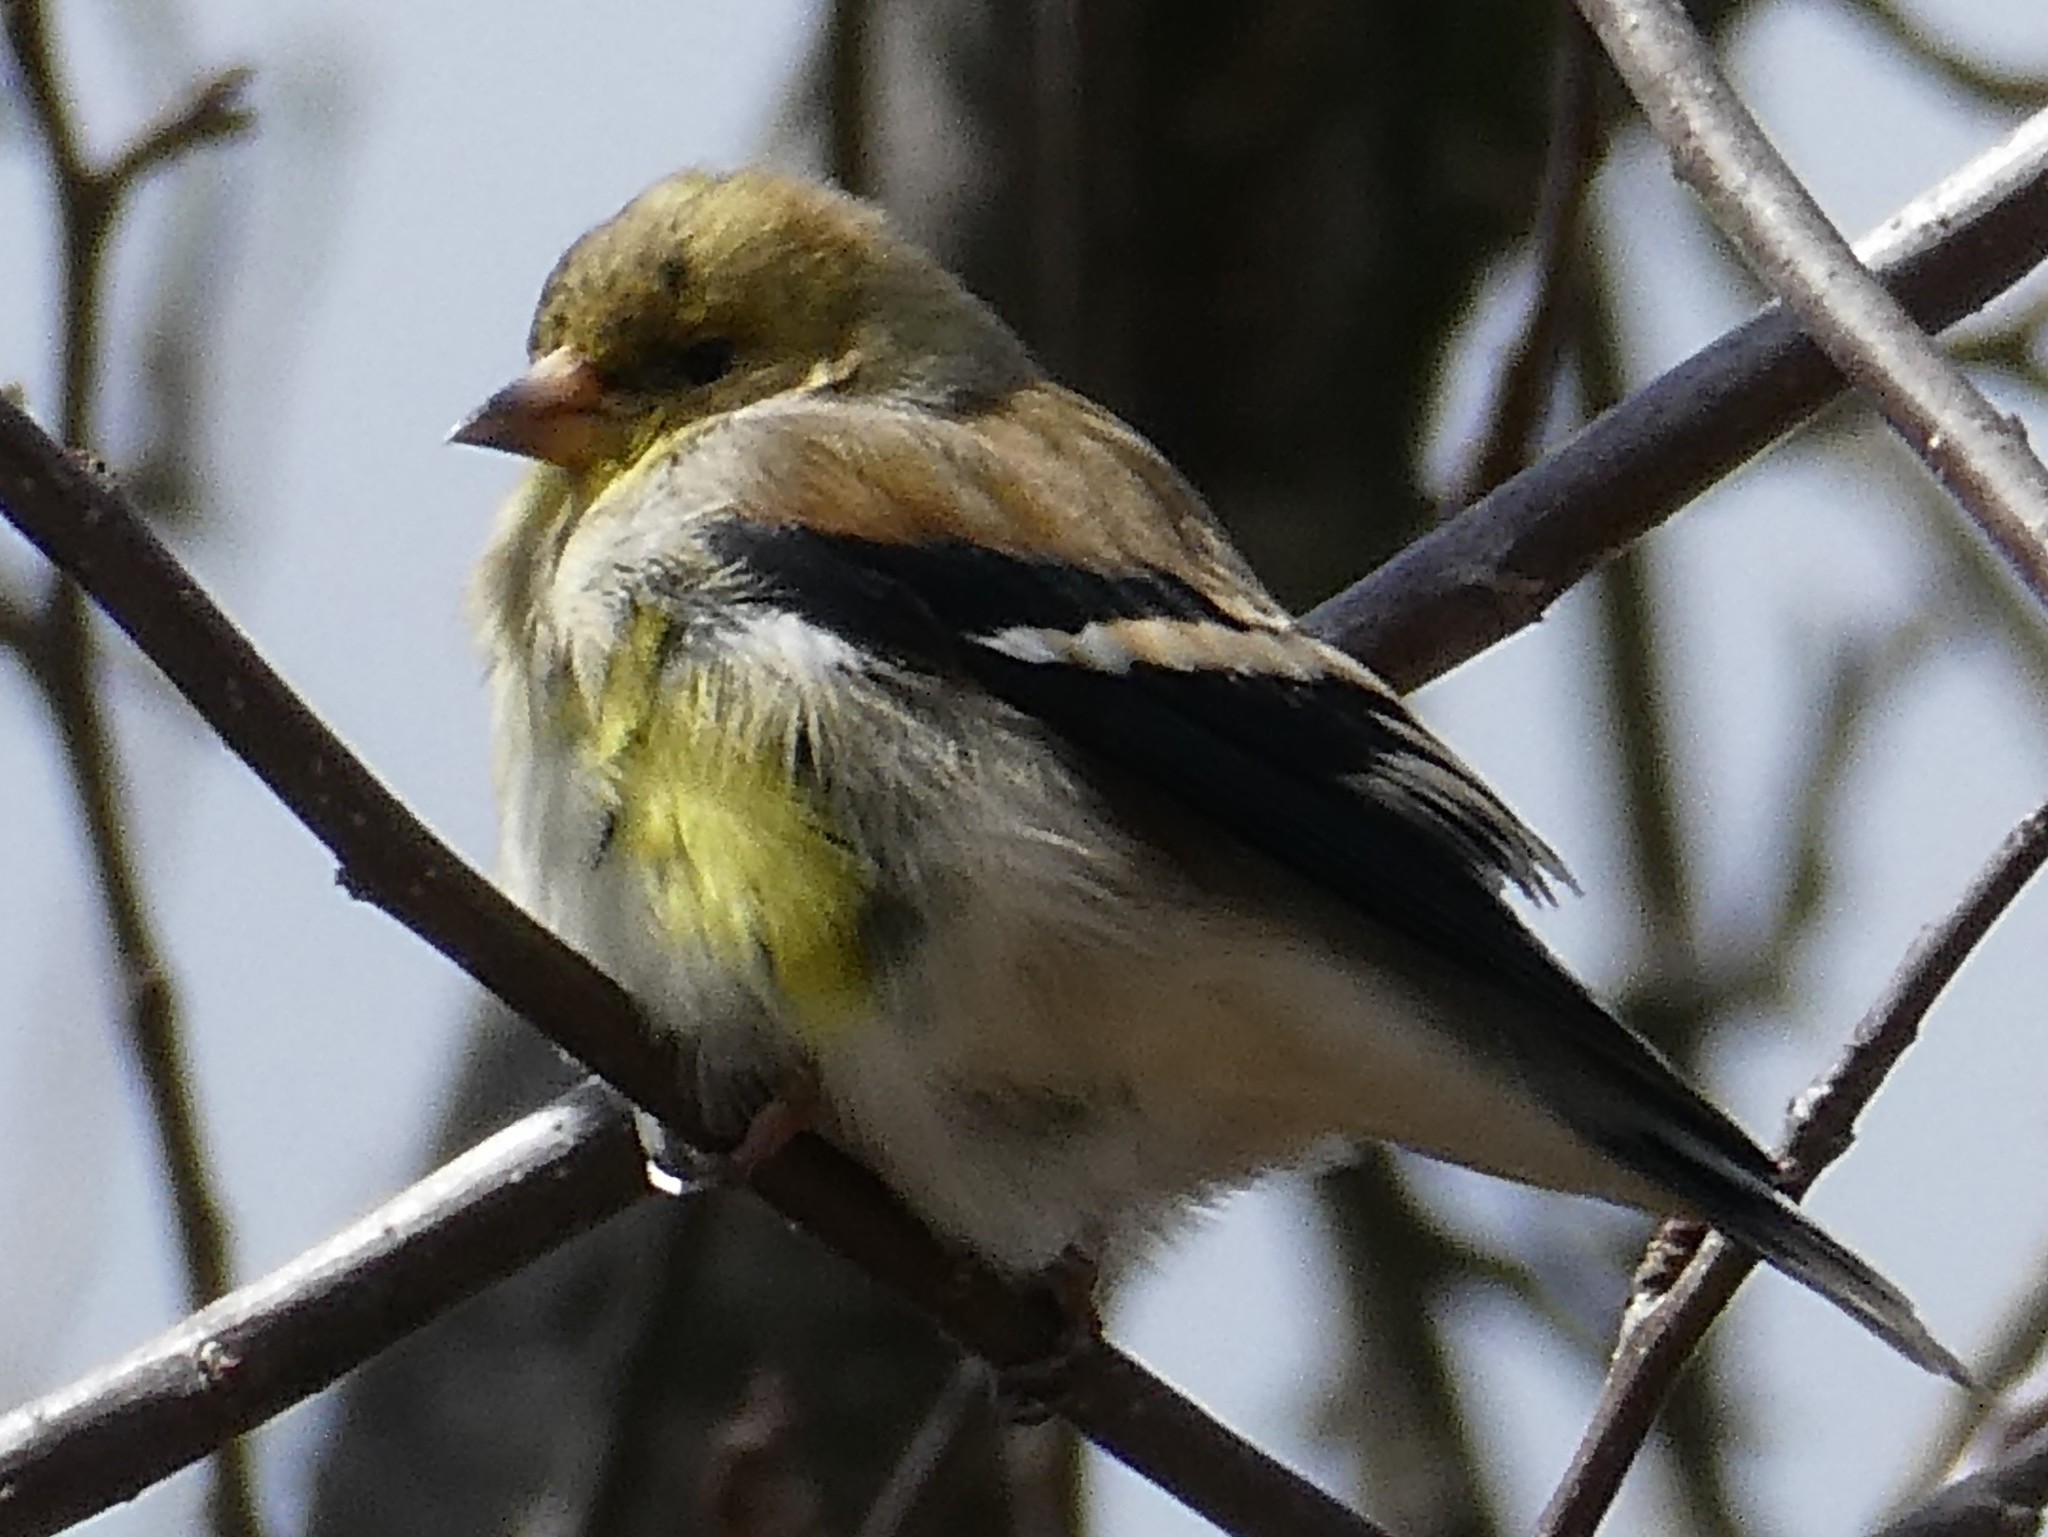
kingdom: Animalia
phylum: Chordata
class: Aves
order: Passeriformes
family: Fringillidae
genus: Spinus
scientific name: Spinus tristis
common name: American goldfinch
